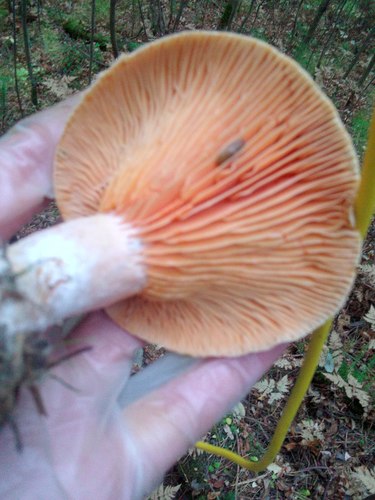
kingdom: Fungi
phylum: Basidiomycota
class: Agaricomycetes
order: Russulales
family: Russulaceae
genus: Lactarius
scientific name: Lactarius deliciosus
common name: Saffron milk-cap
